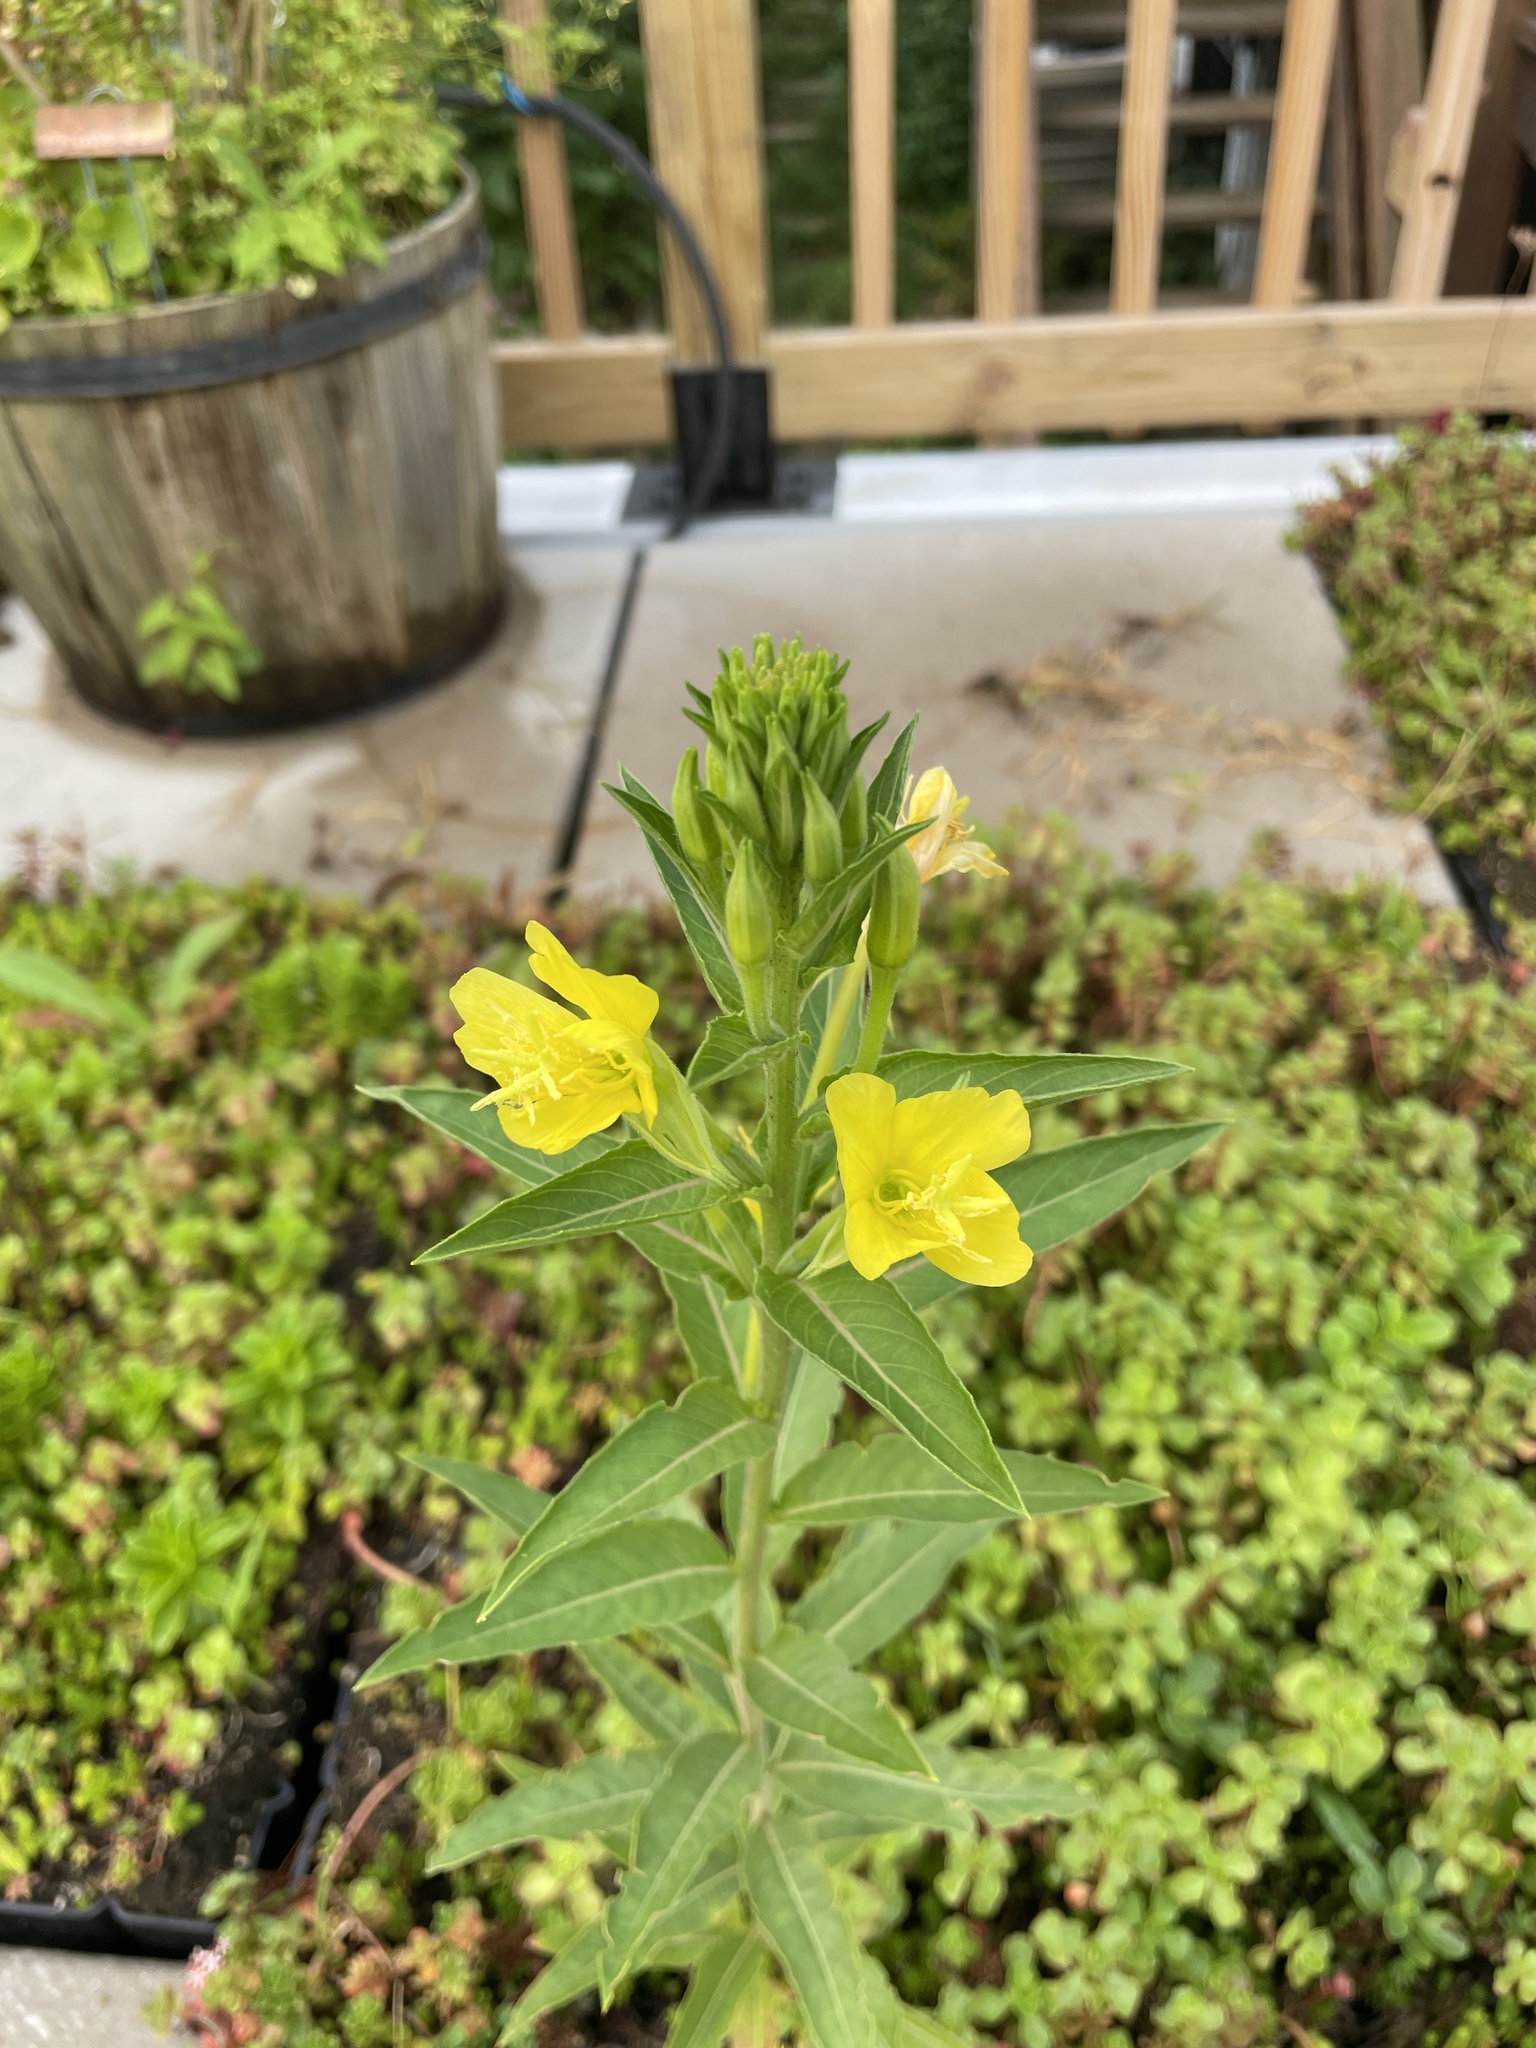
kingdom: Plantae
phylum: Tracheophyta
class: Magnoliopsida
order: Myrtales
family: Onagraceae
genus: Oenothera
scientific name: Oenothera biennis
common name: Common evening-primrose
